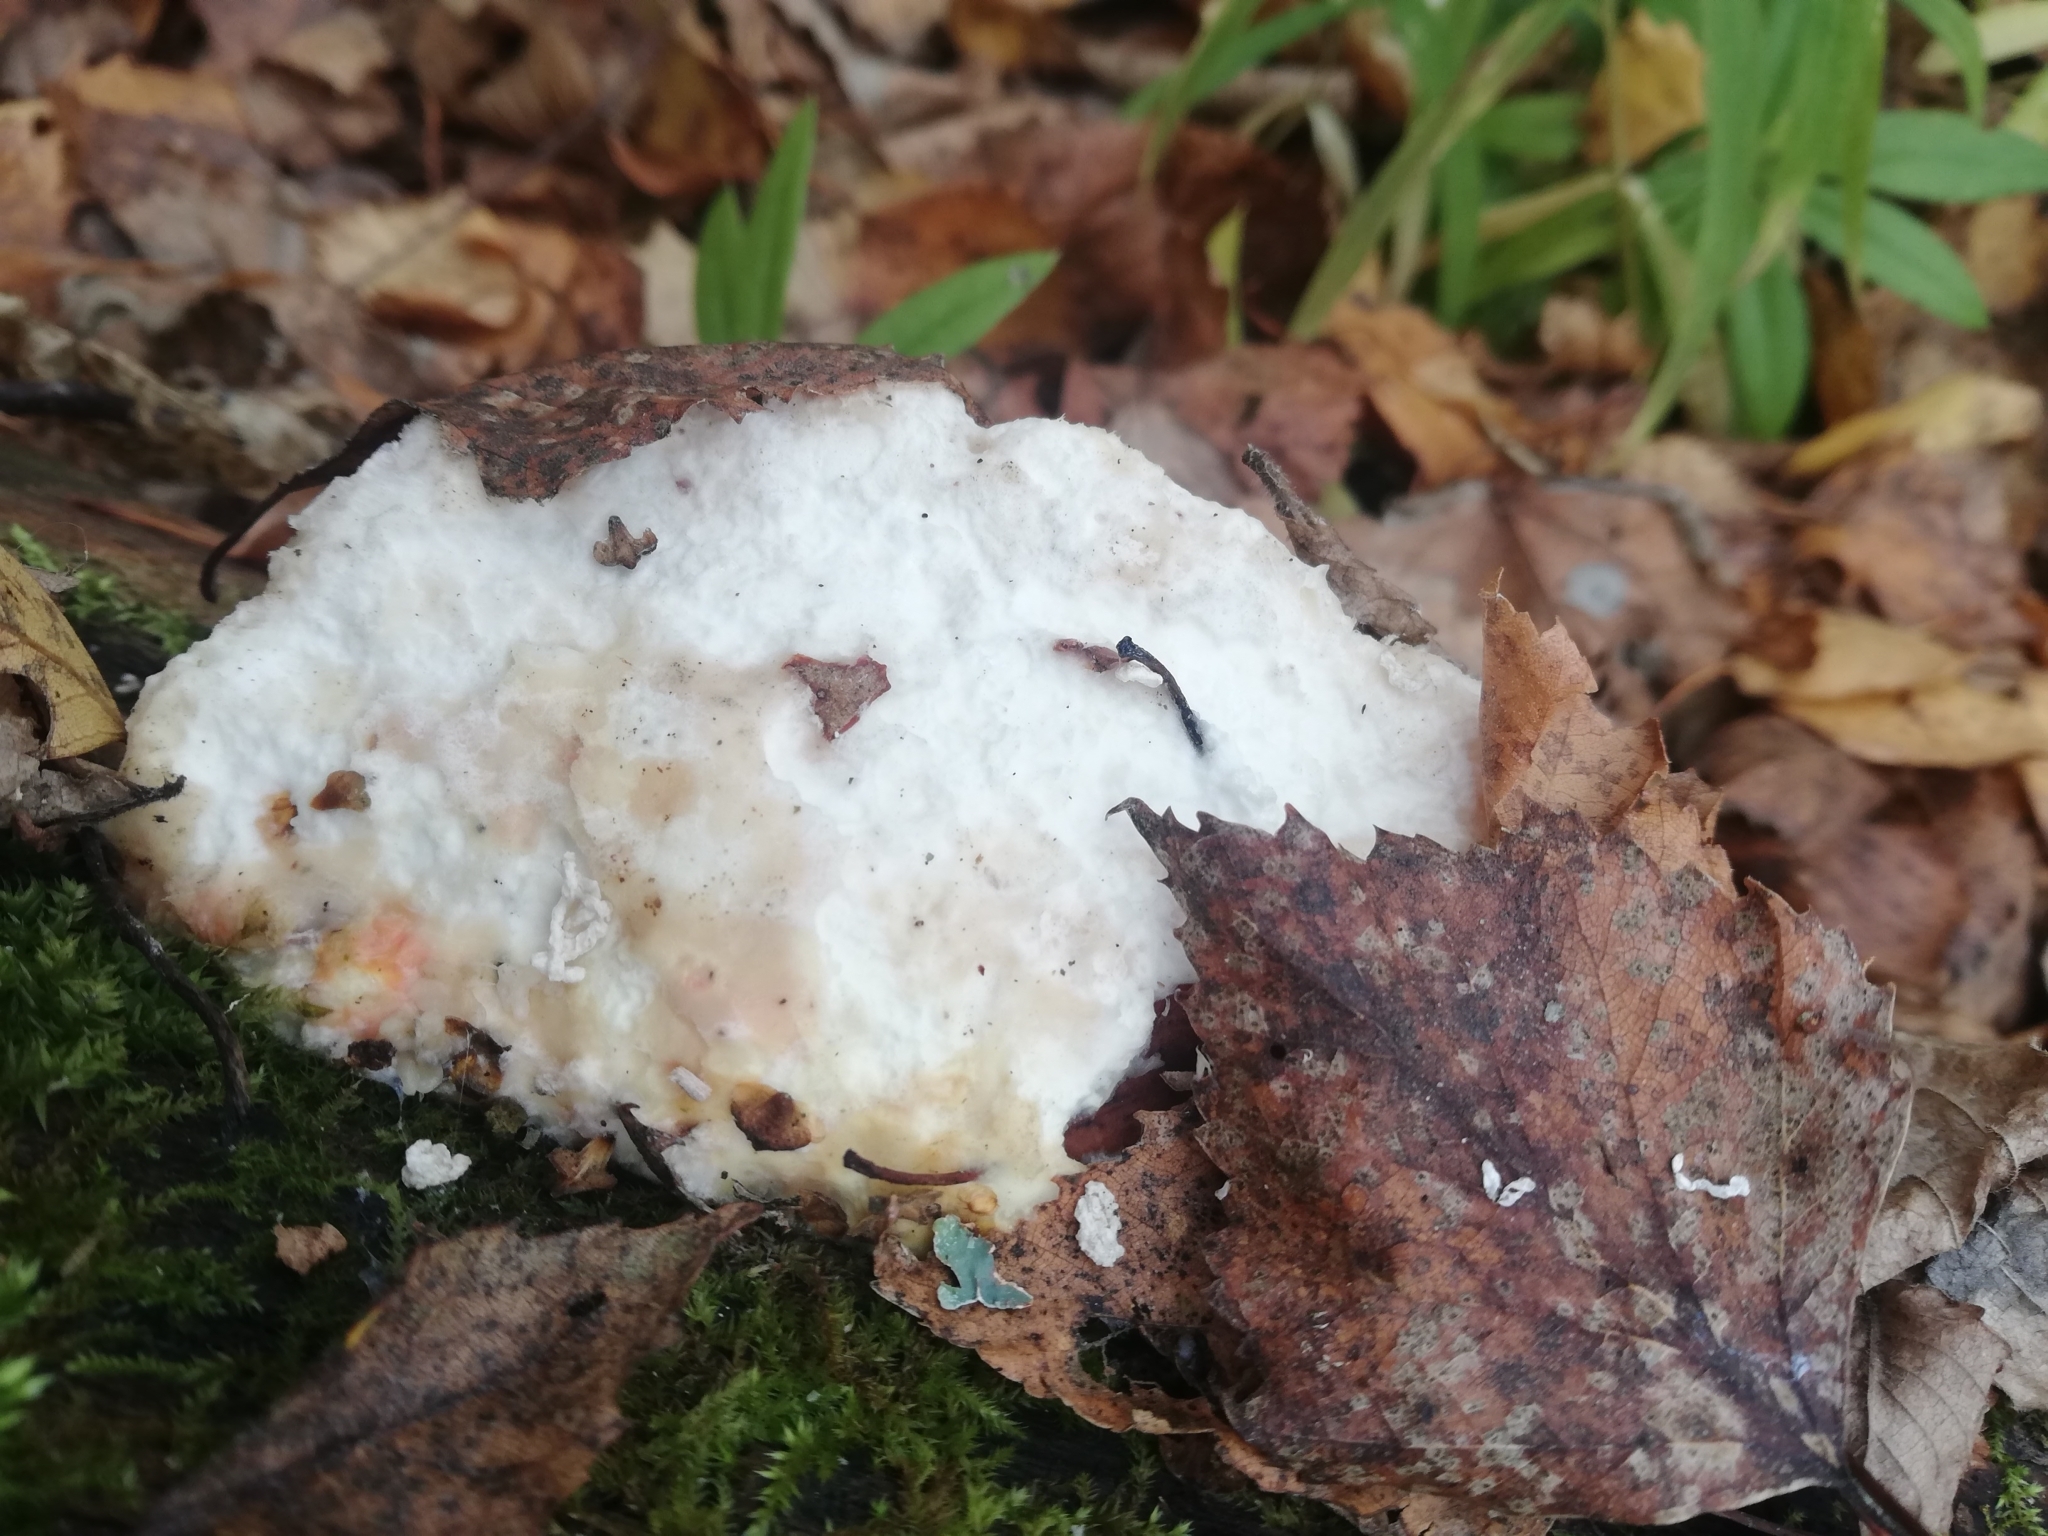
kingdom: Fungi
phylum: Basidiomycota
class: Agaricomycetes
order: Polyporales
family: Laetiporaceae
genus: Laetiporus
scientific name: Laetiporus sulphureus
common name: Chicken of the woods
